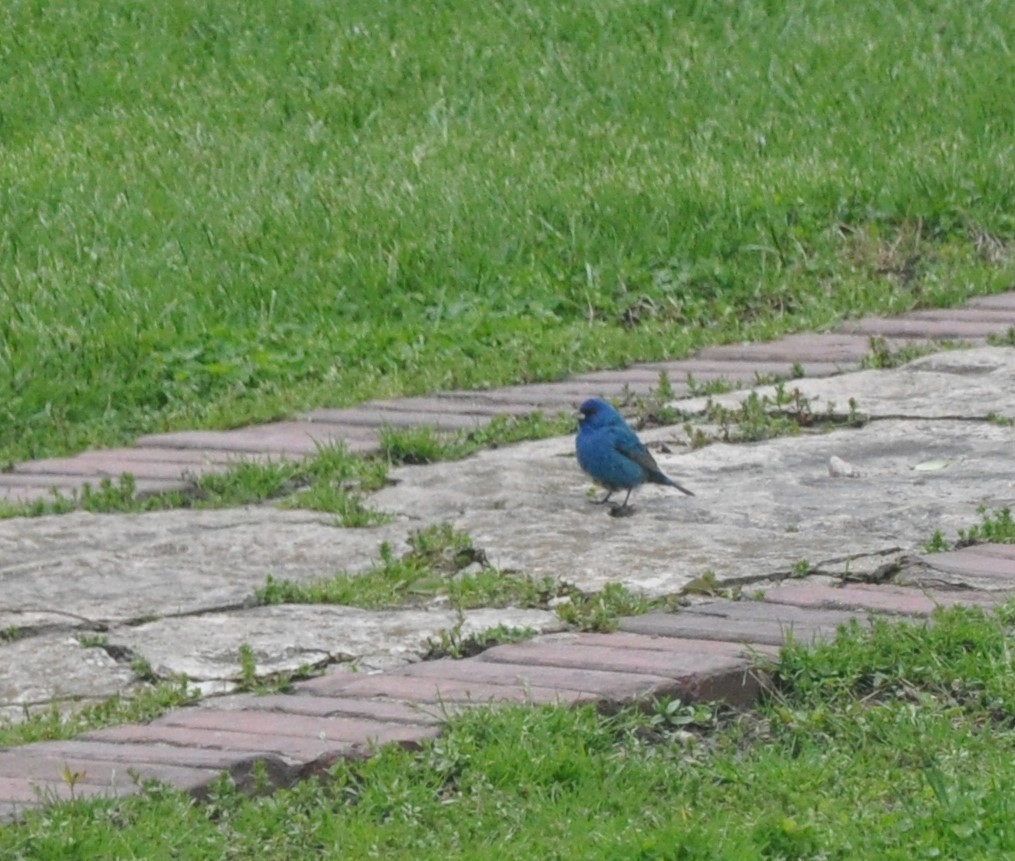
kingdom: Animalia
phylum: Chordata
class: Aves
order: Passeriformes
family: Cardinalidae
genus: Passerina
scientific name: Passerina cyanea
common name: Indigo bunting
